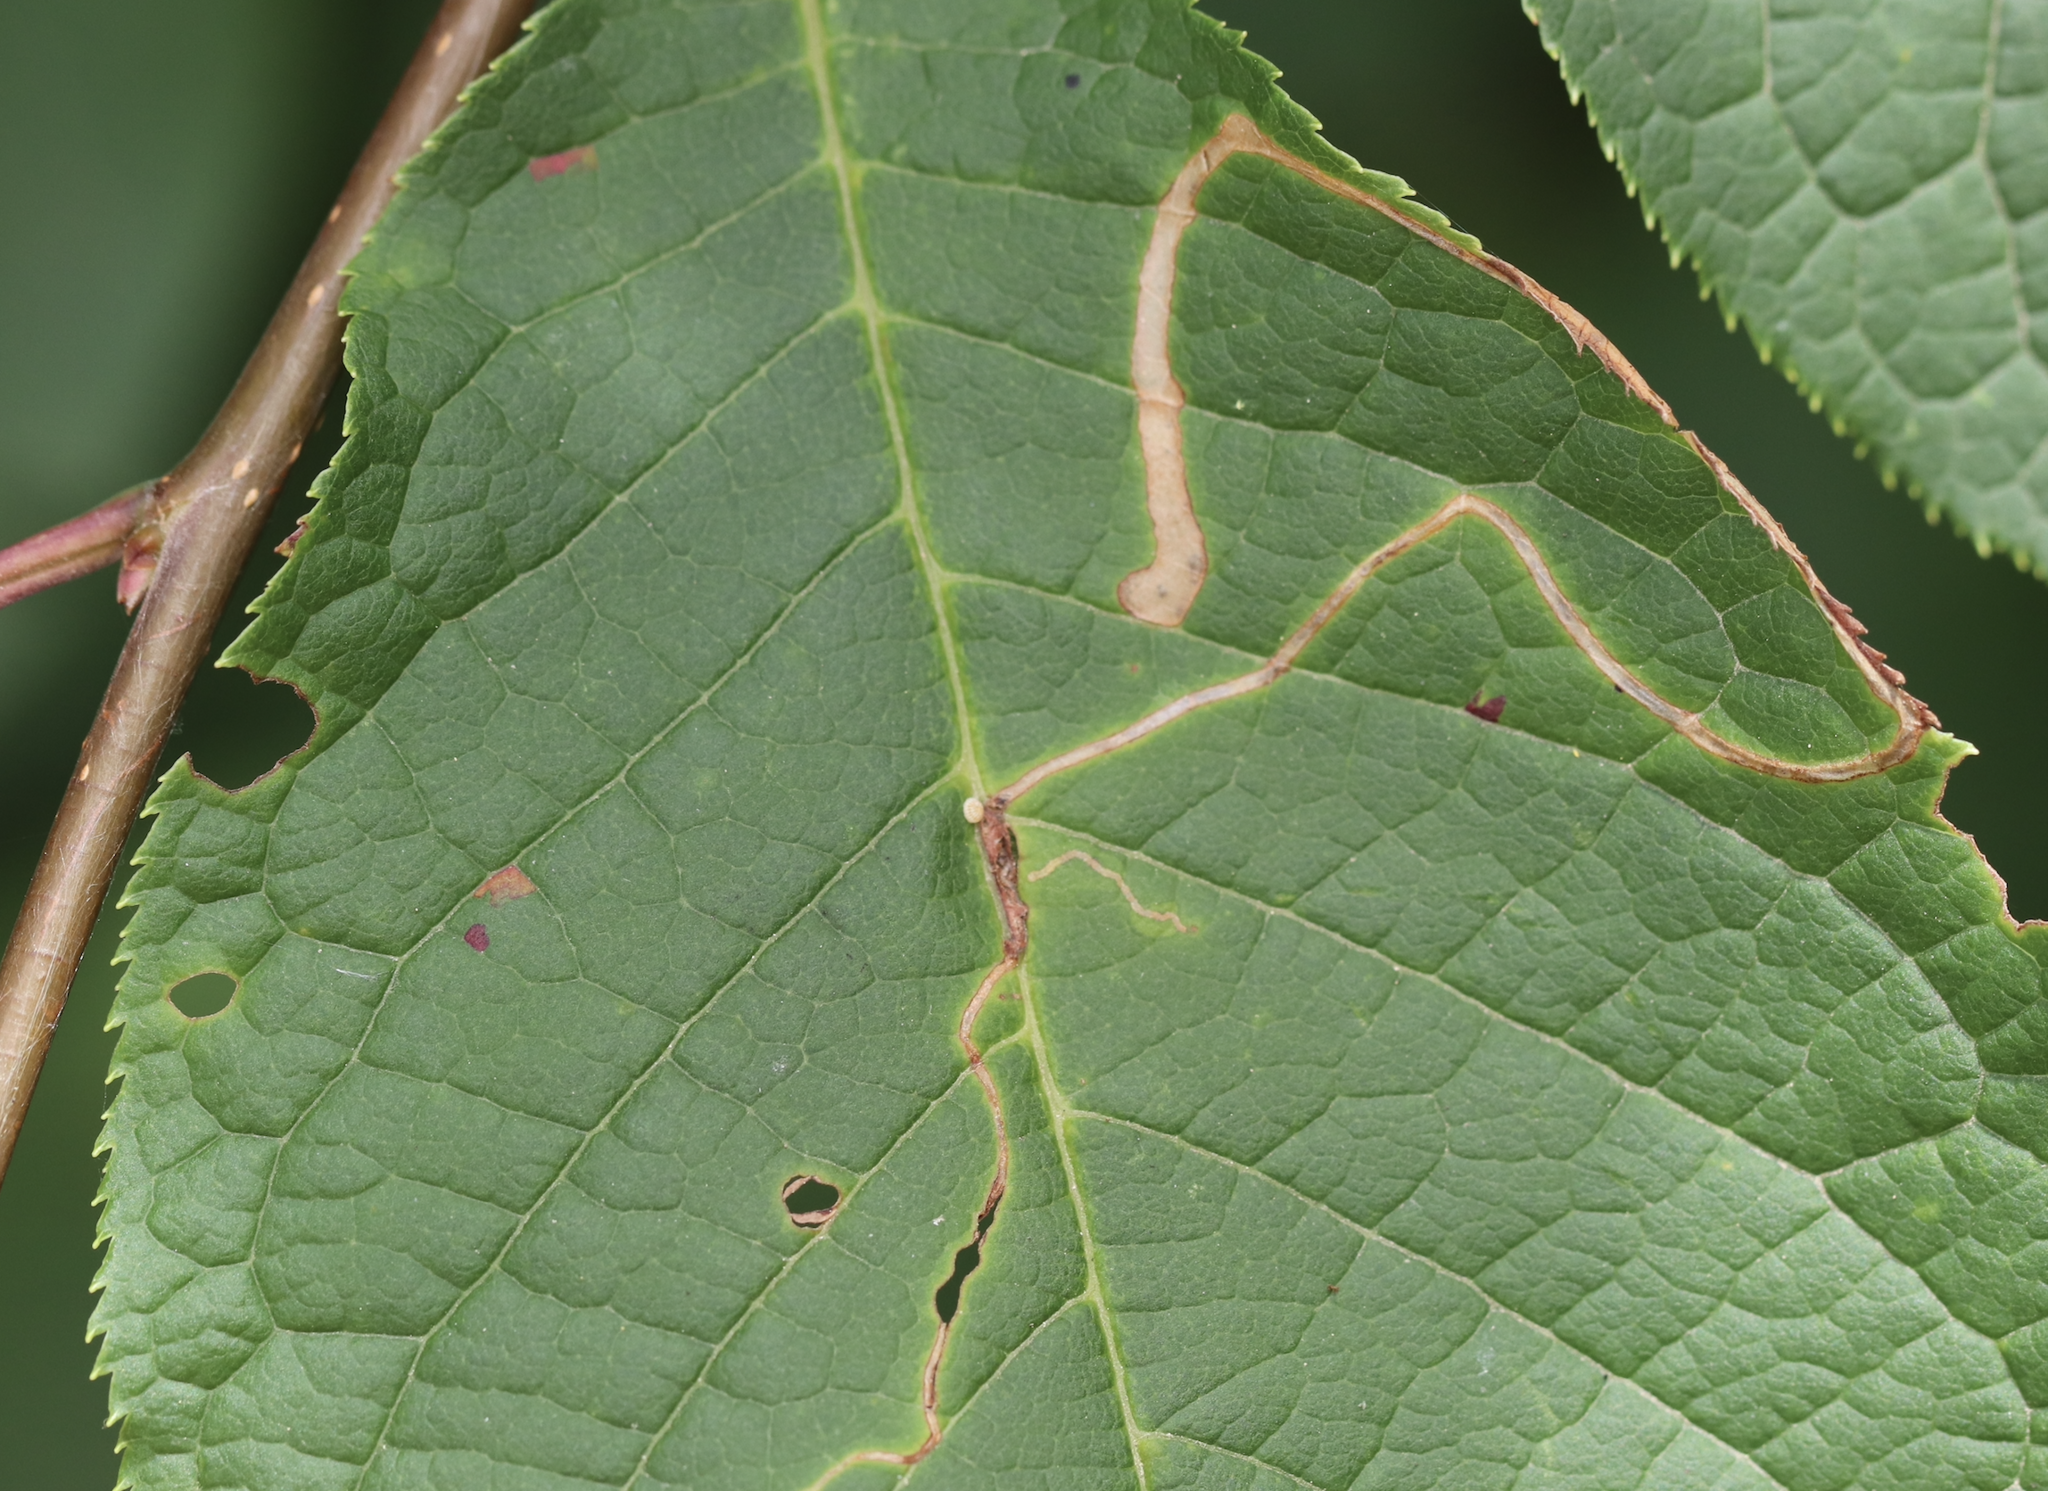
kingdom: Animalia
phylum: Arthropoda
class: Insecta
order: Lepidoptera
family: Lyonetiidae
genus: Lyonetia
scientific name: Lyonetia clerkella
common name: Apple leaf miner
